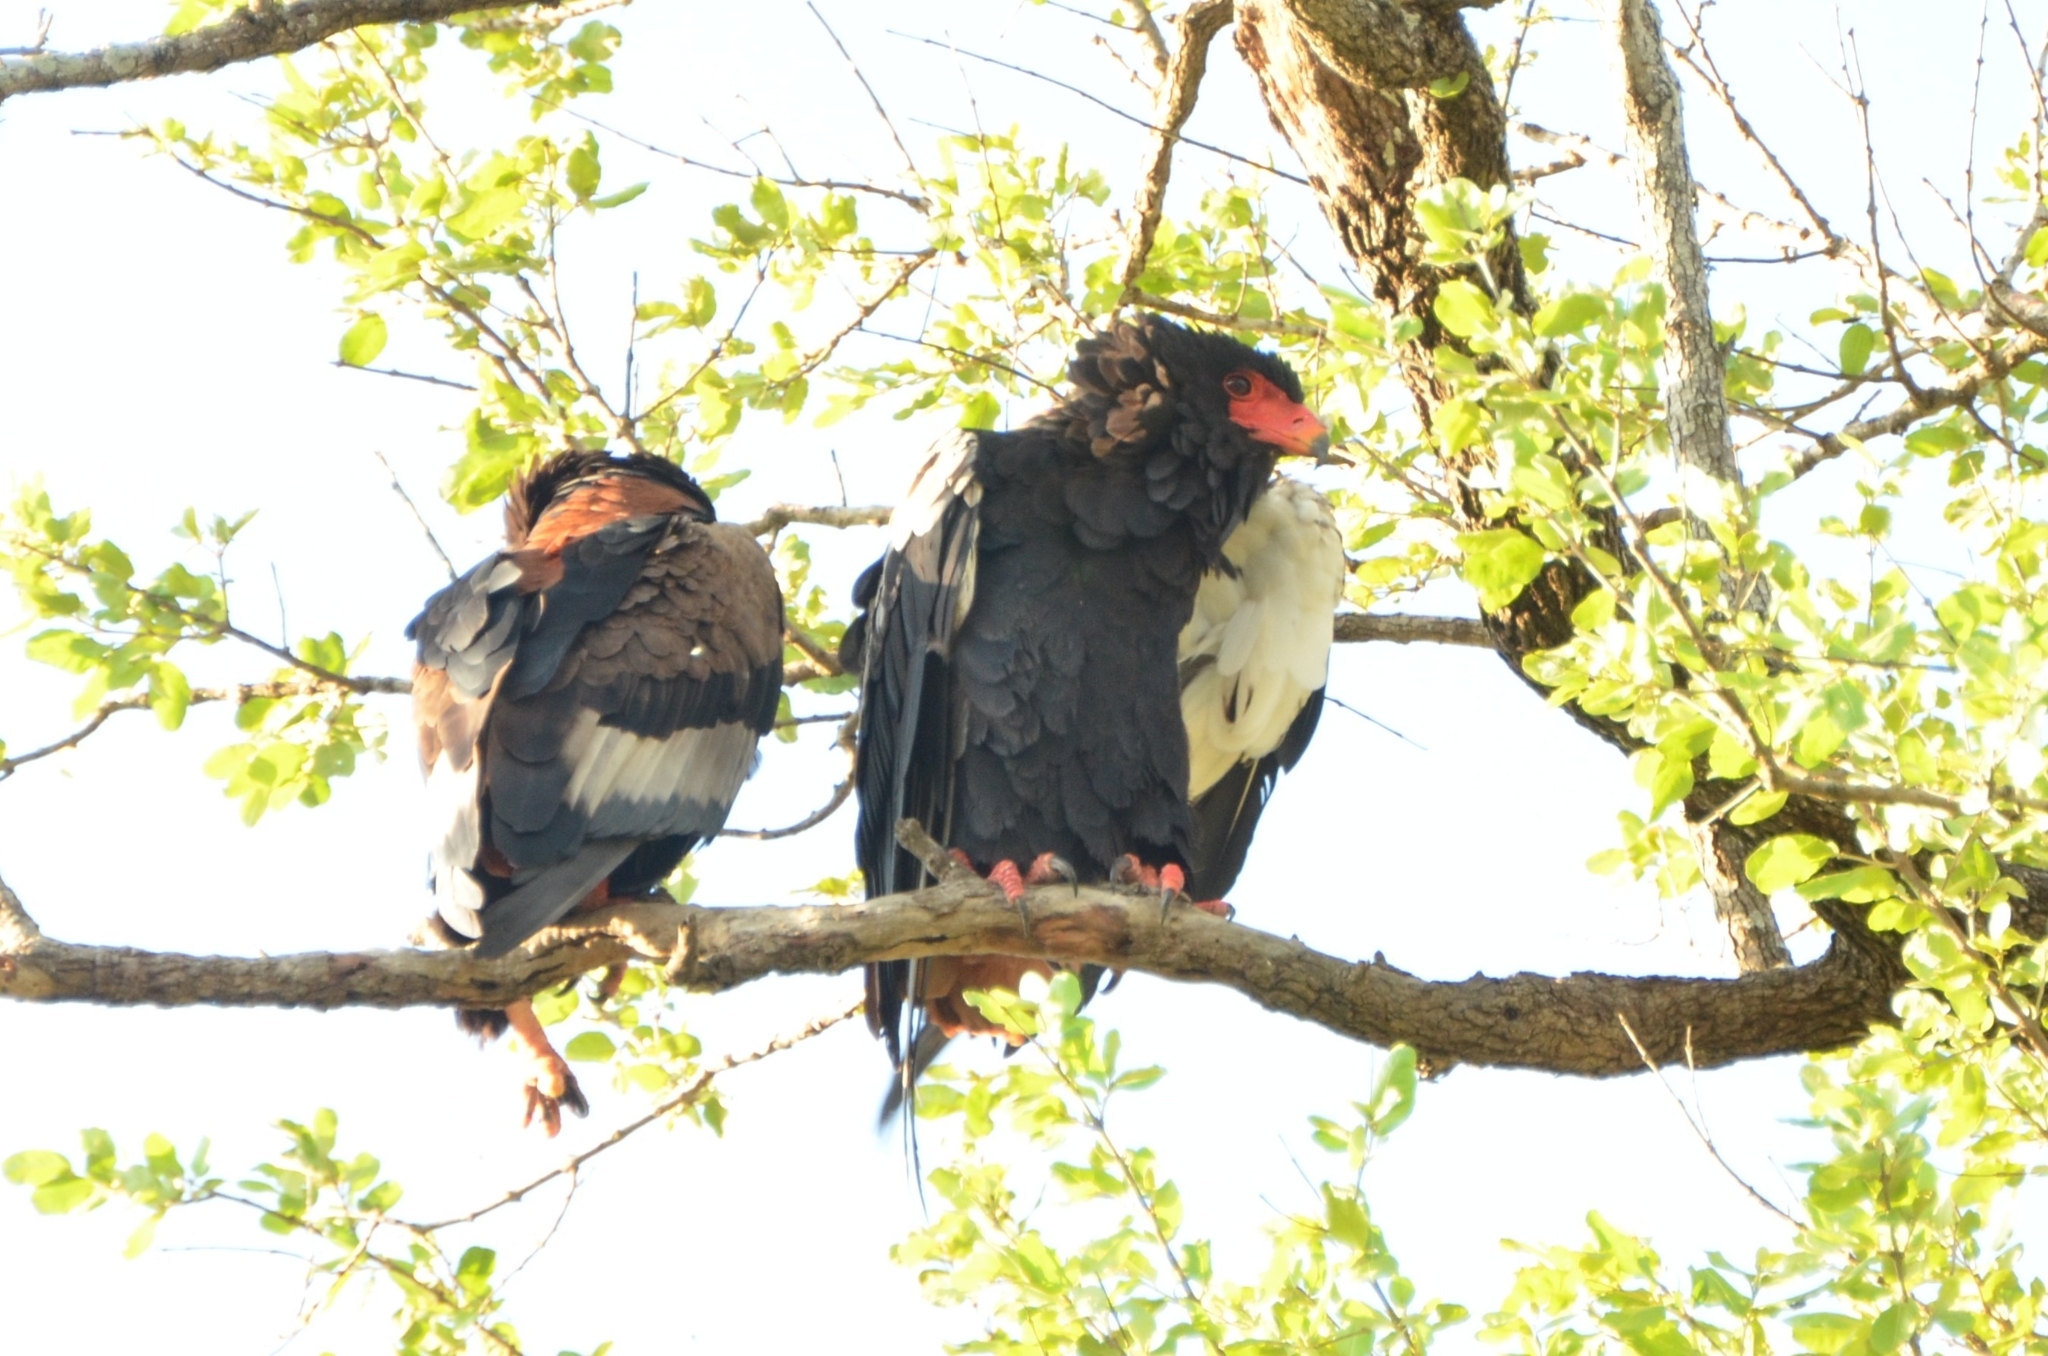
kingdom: Animalia
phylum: Chordata
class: Aves
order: Accipitriformes
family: Accipitridae
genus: Terathopius
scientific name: Terathopius ecaudatus
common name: Bateleur
